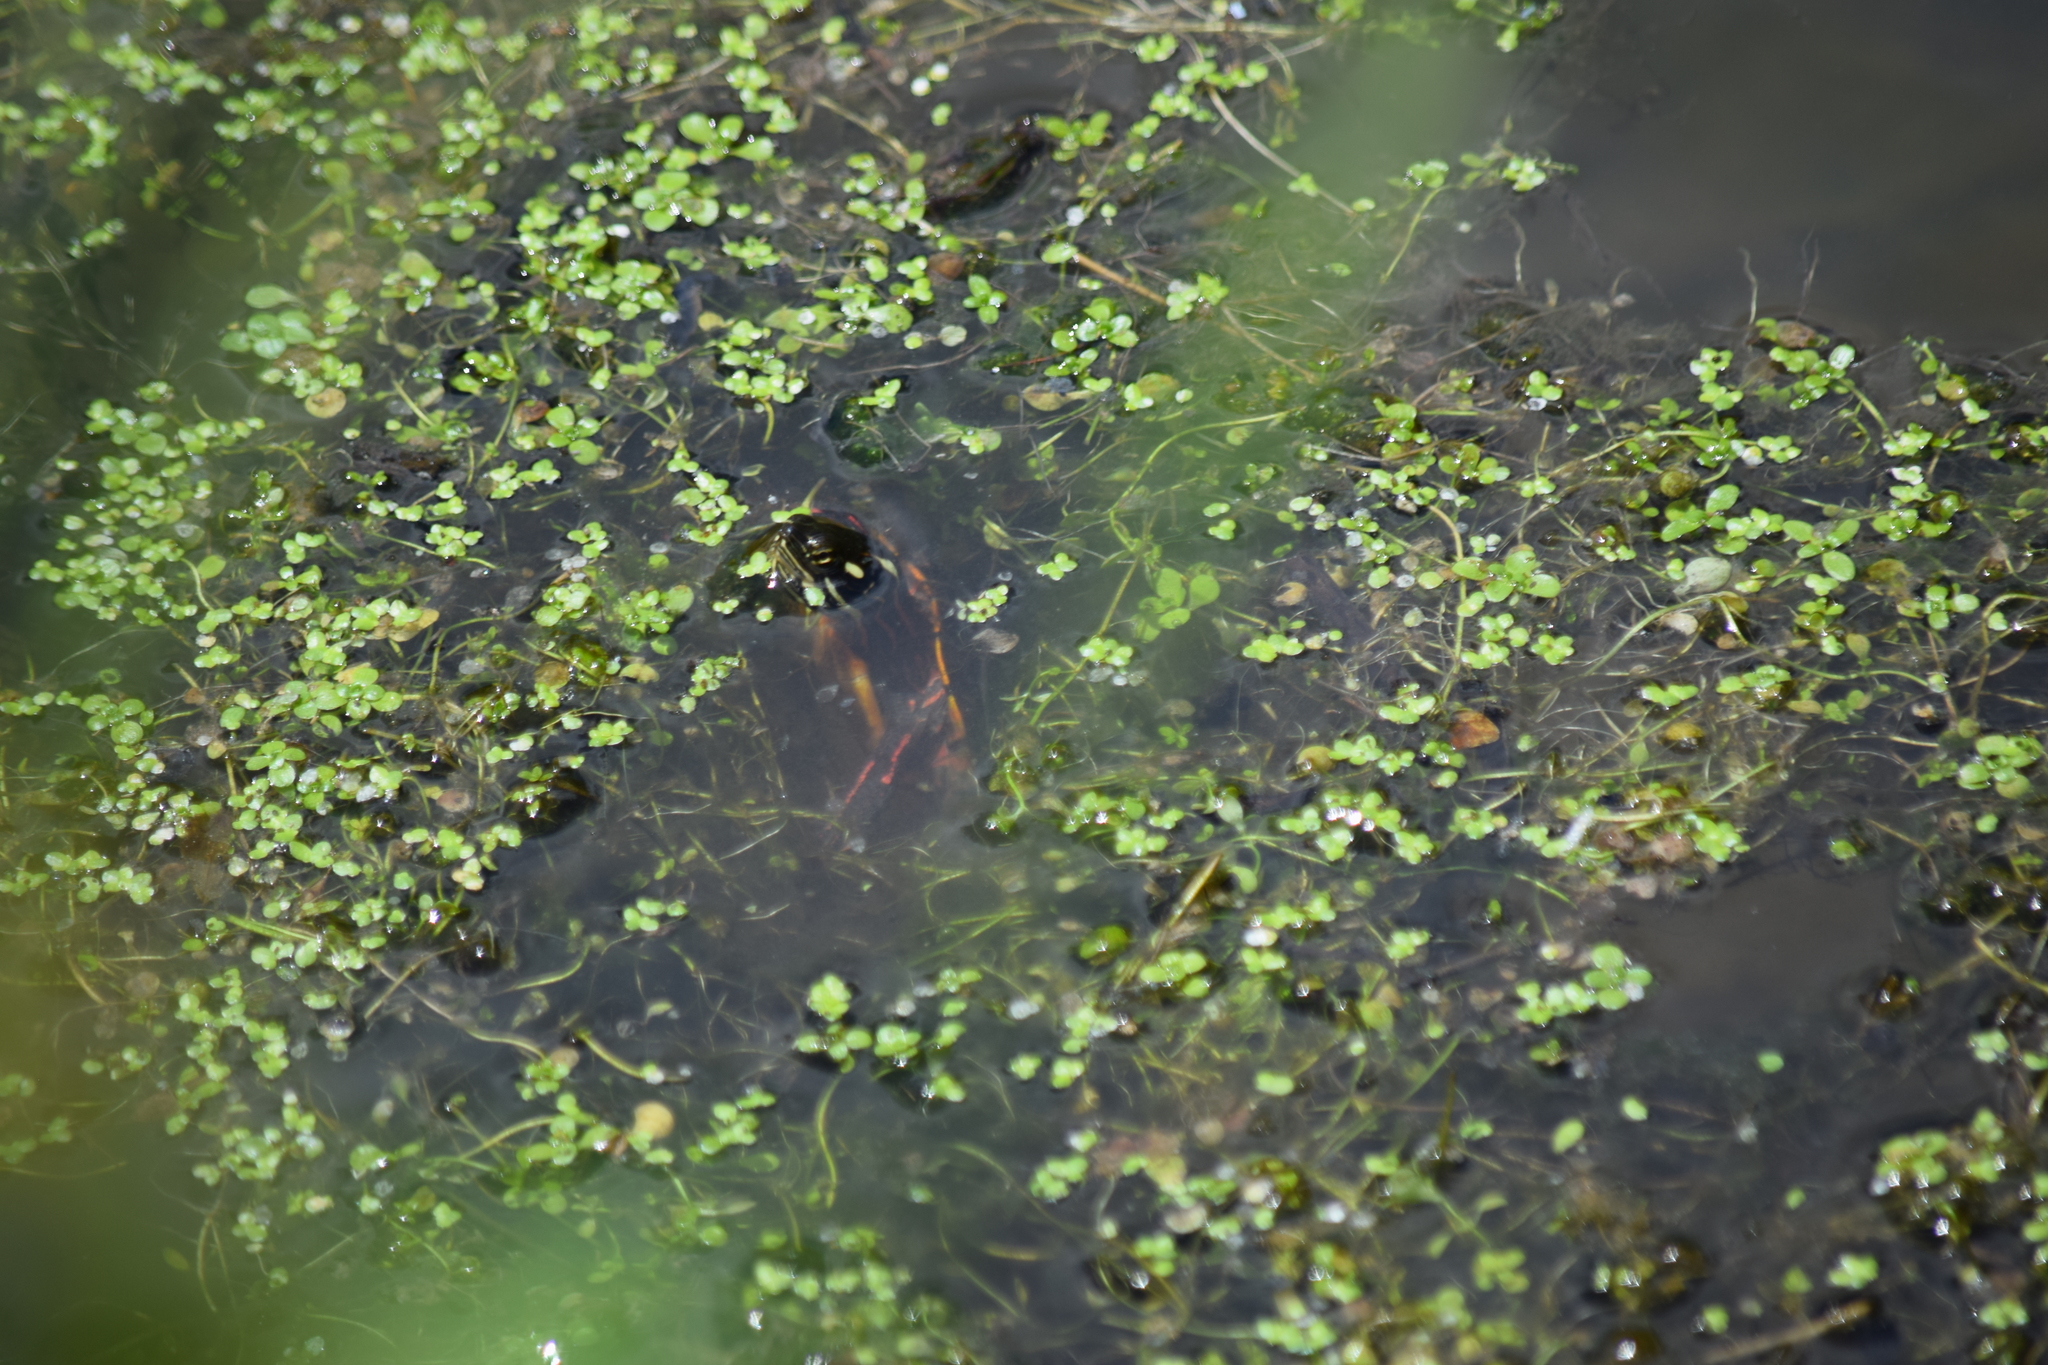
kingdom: Animalia
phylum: Chordata
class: Testudines
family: Emydidae
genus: Chrysemys
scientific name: Chrysemys picta
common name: Painted turtle
